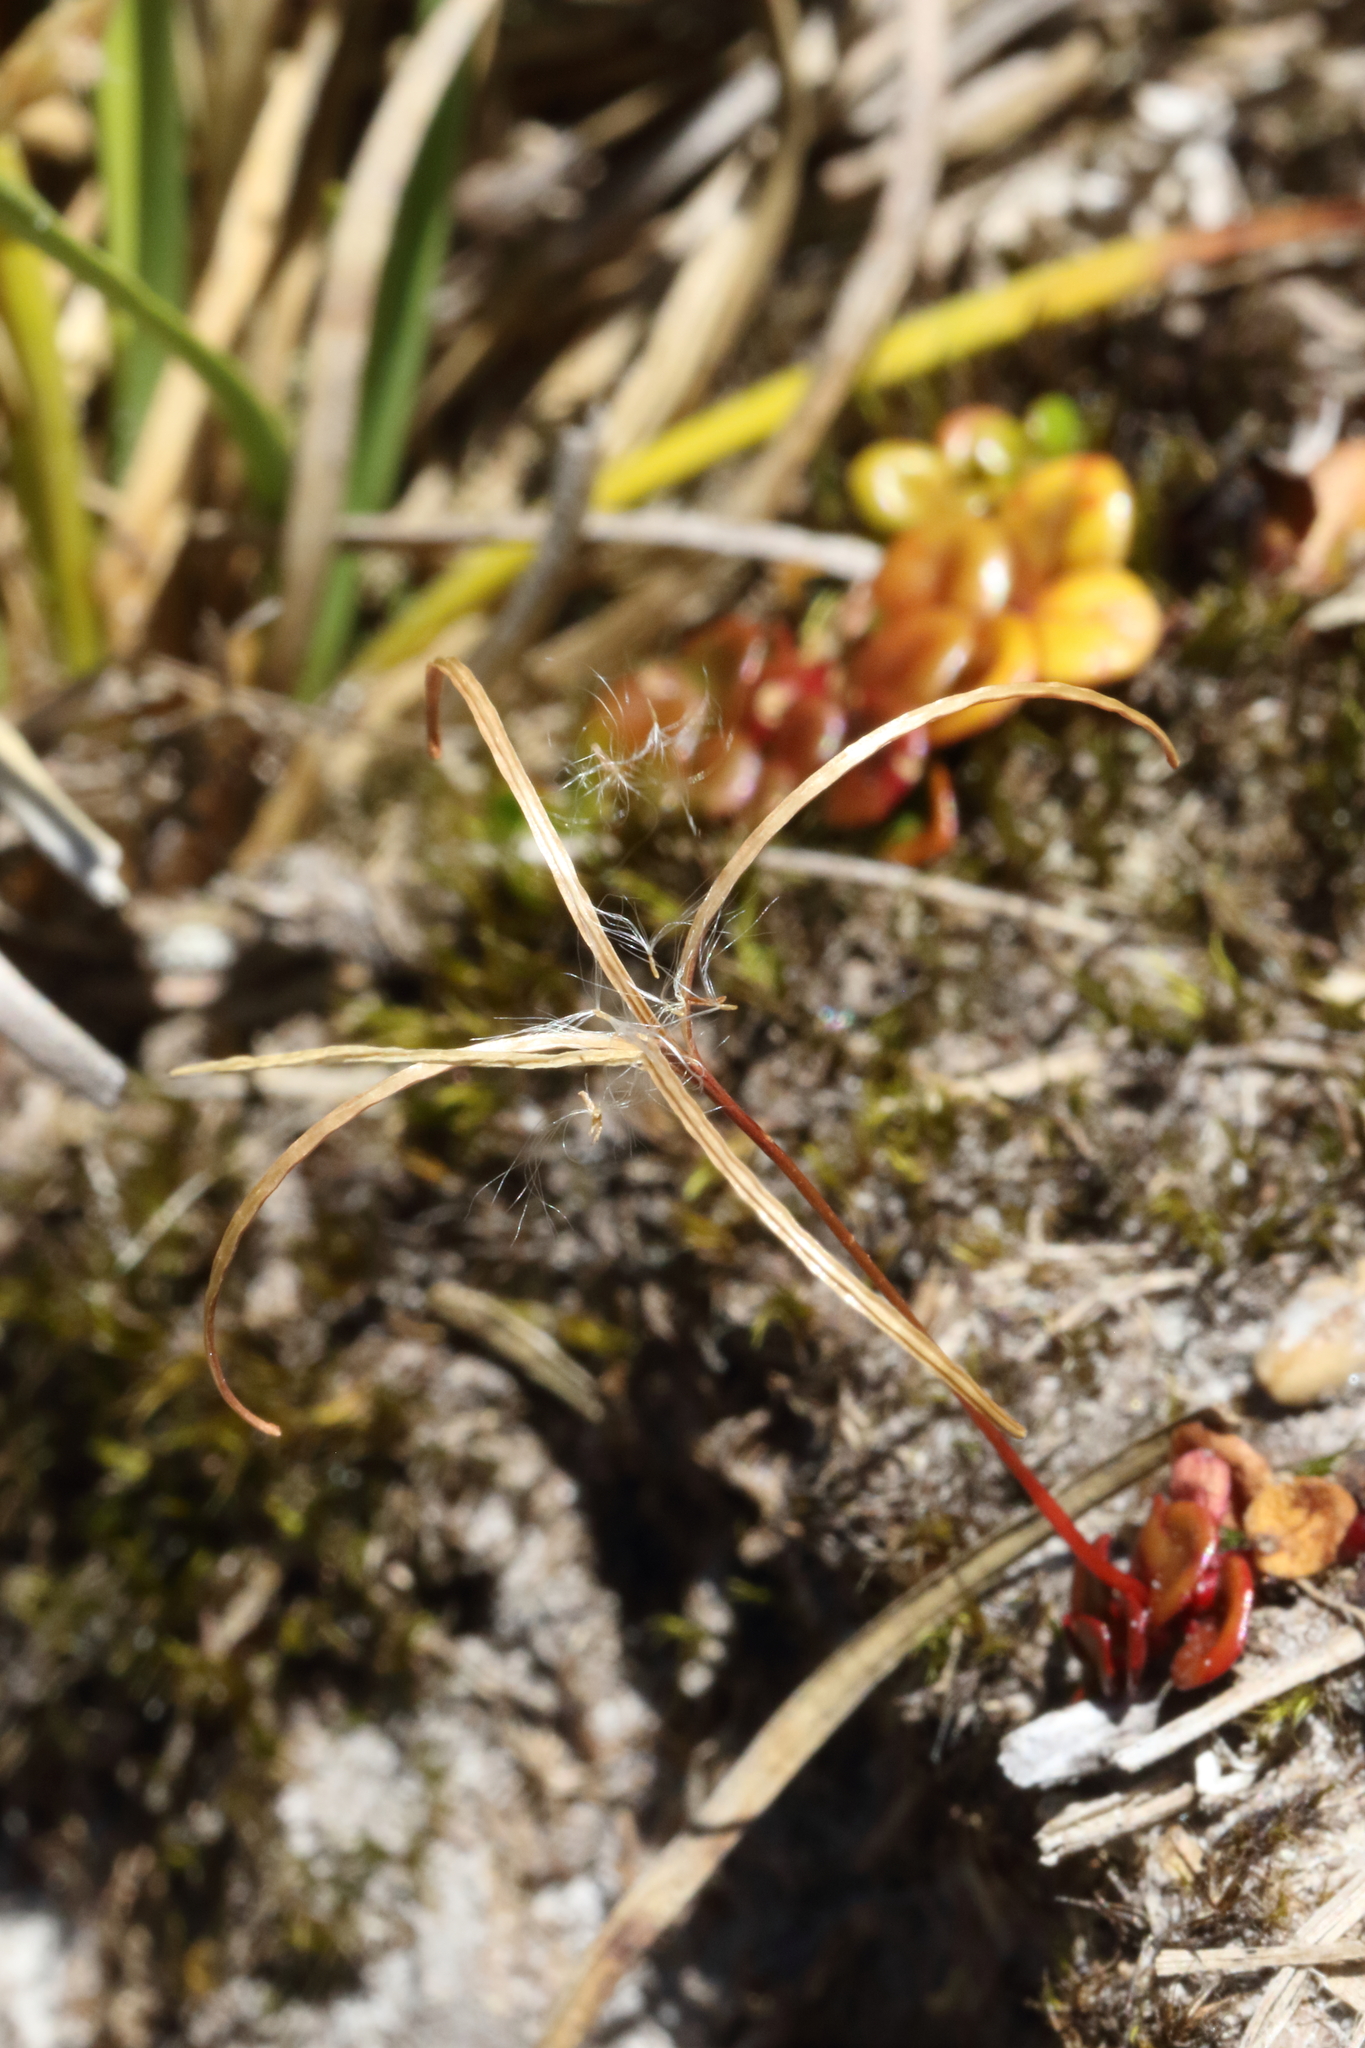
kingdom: Plantae
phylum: Tracheophyta
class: Magnoliopsida
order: Myrtales
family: Onagraceae
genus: Epilobium
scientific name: Epilobium pernitens
